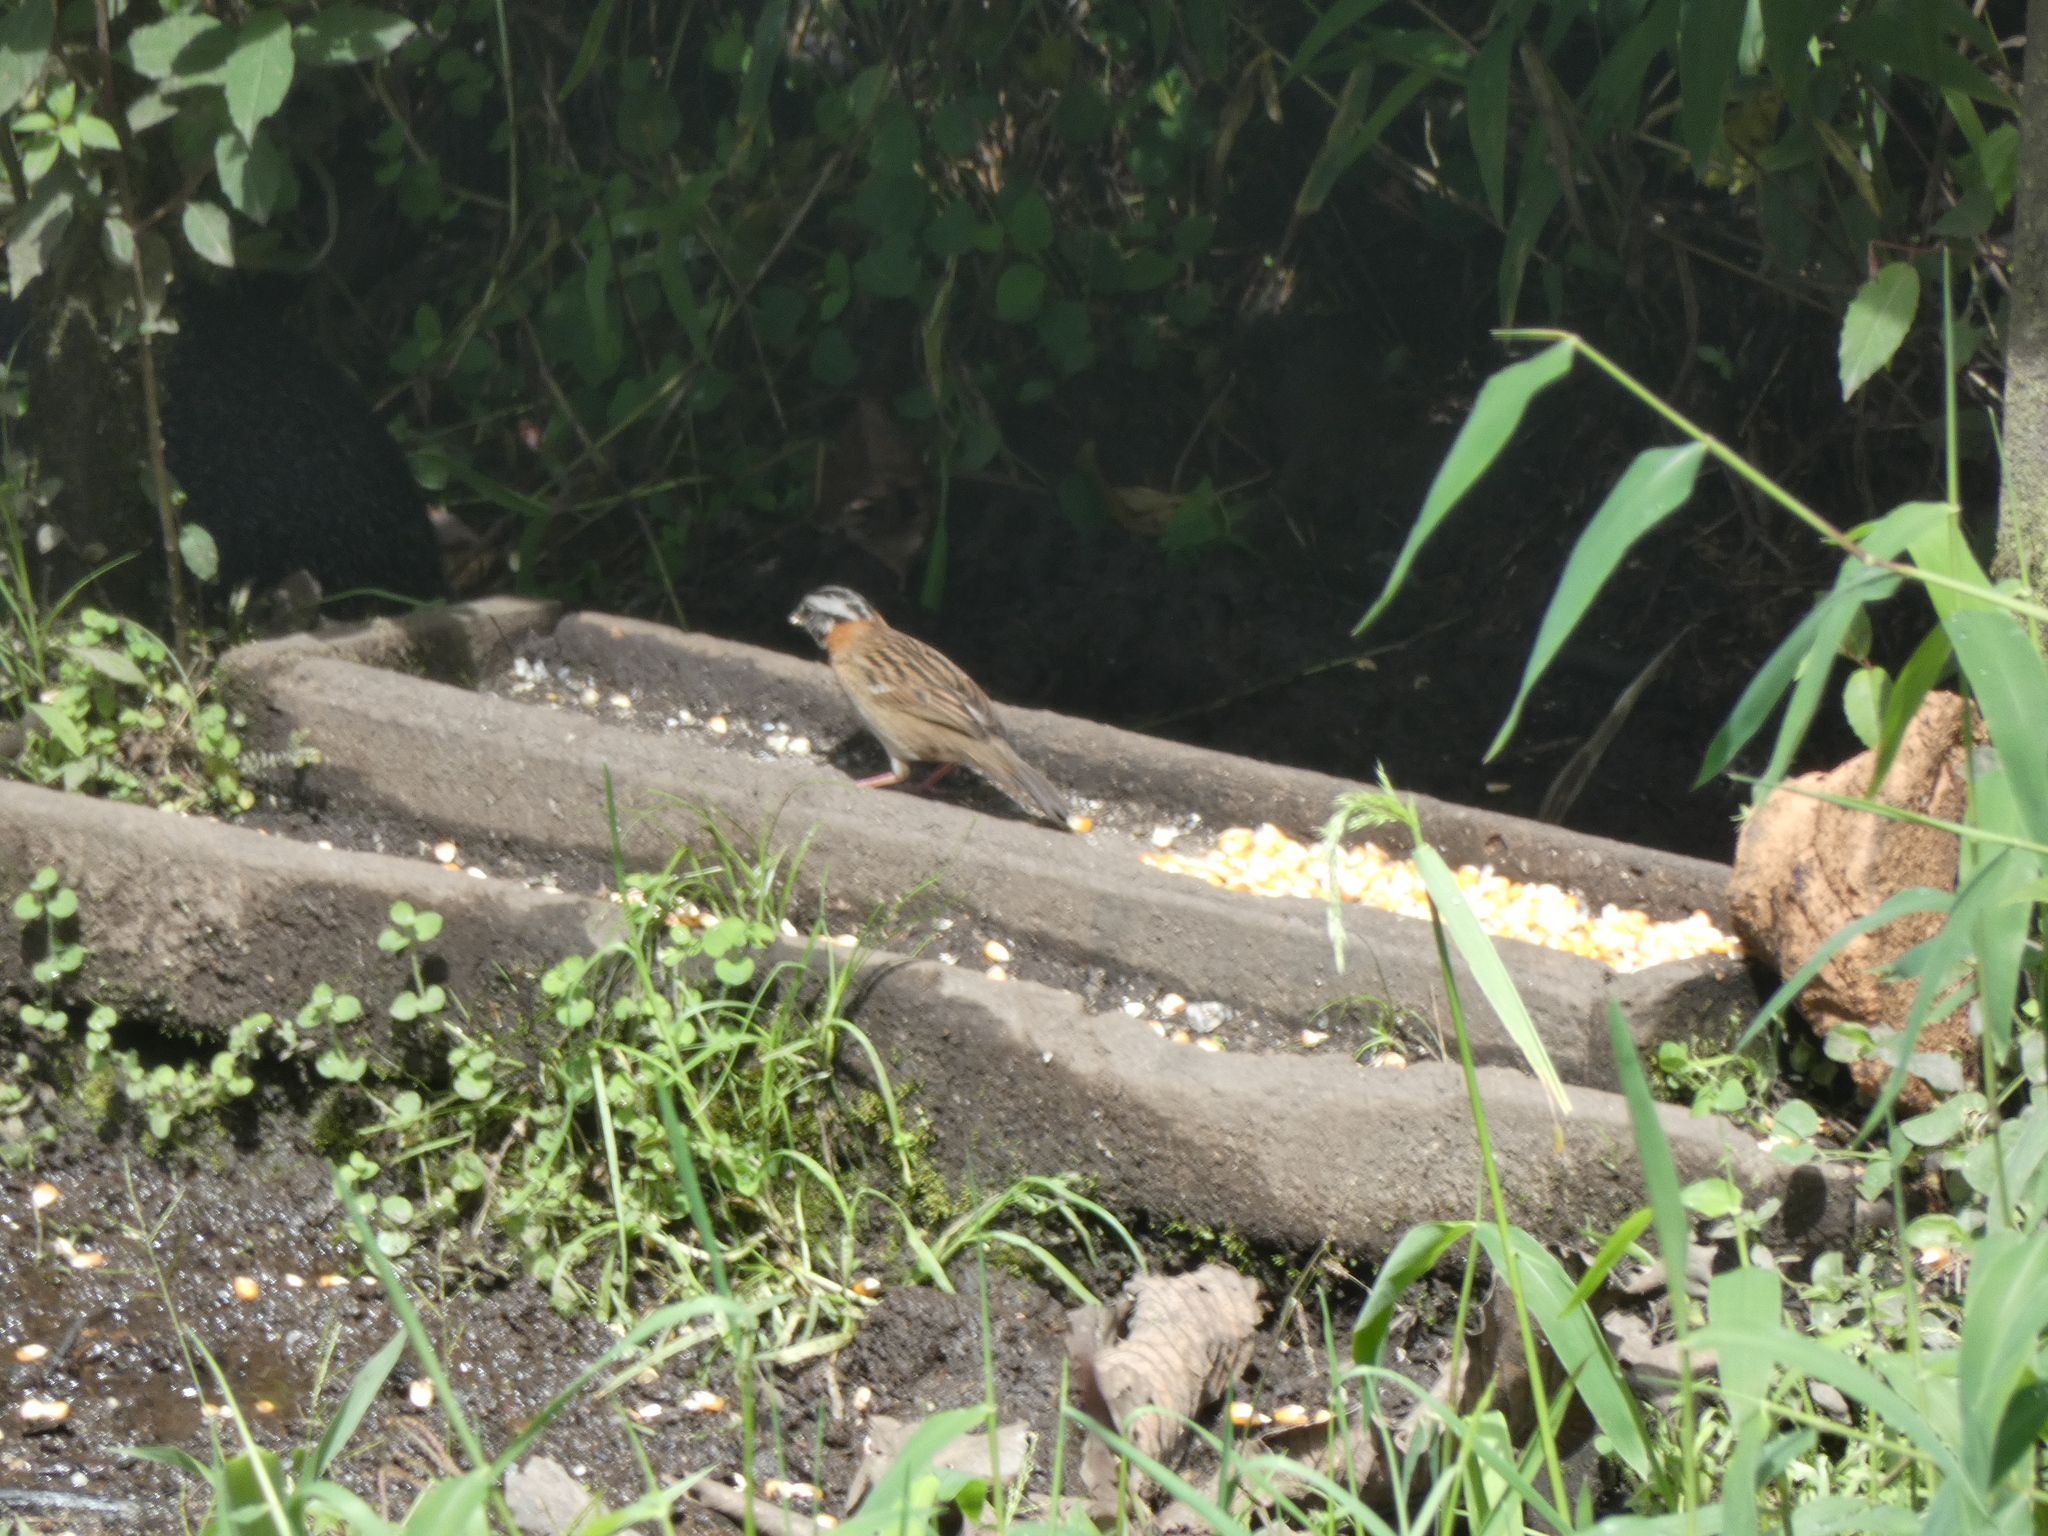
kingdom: Animalia
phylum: Chordata
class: Aves
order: Passeriformes
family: Passerellidae
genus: Zonotrichia
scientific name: Zonotrichia capensis
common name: Rufous-collared sparrow
